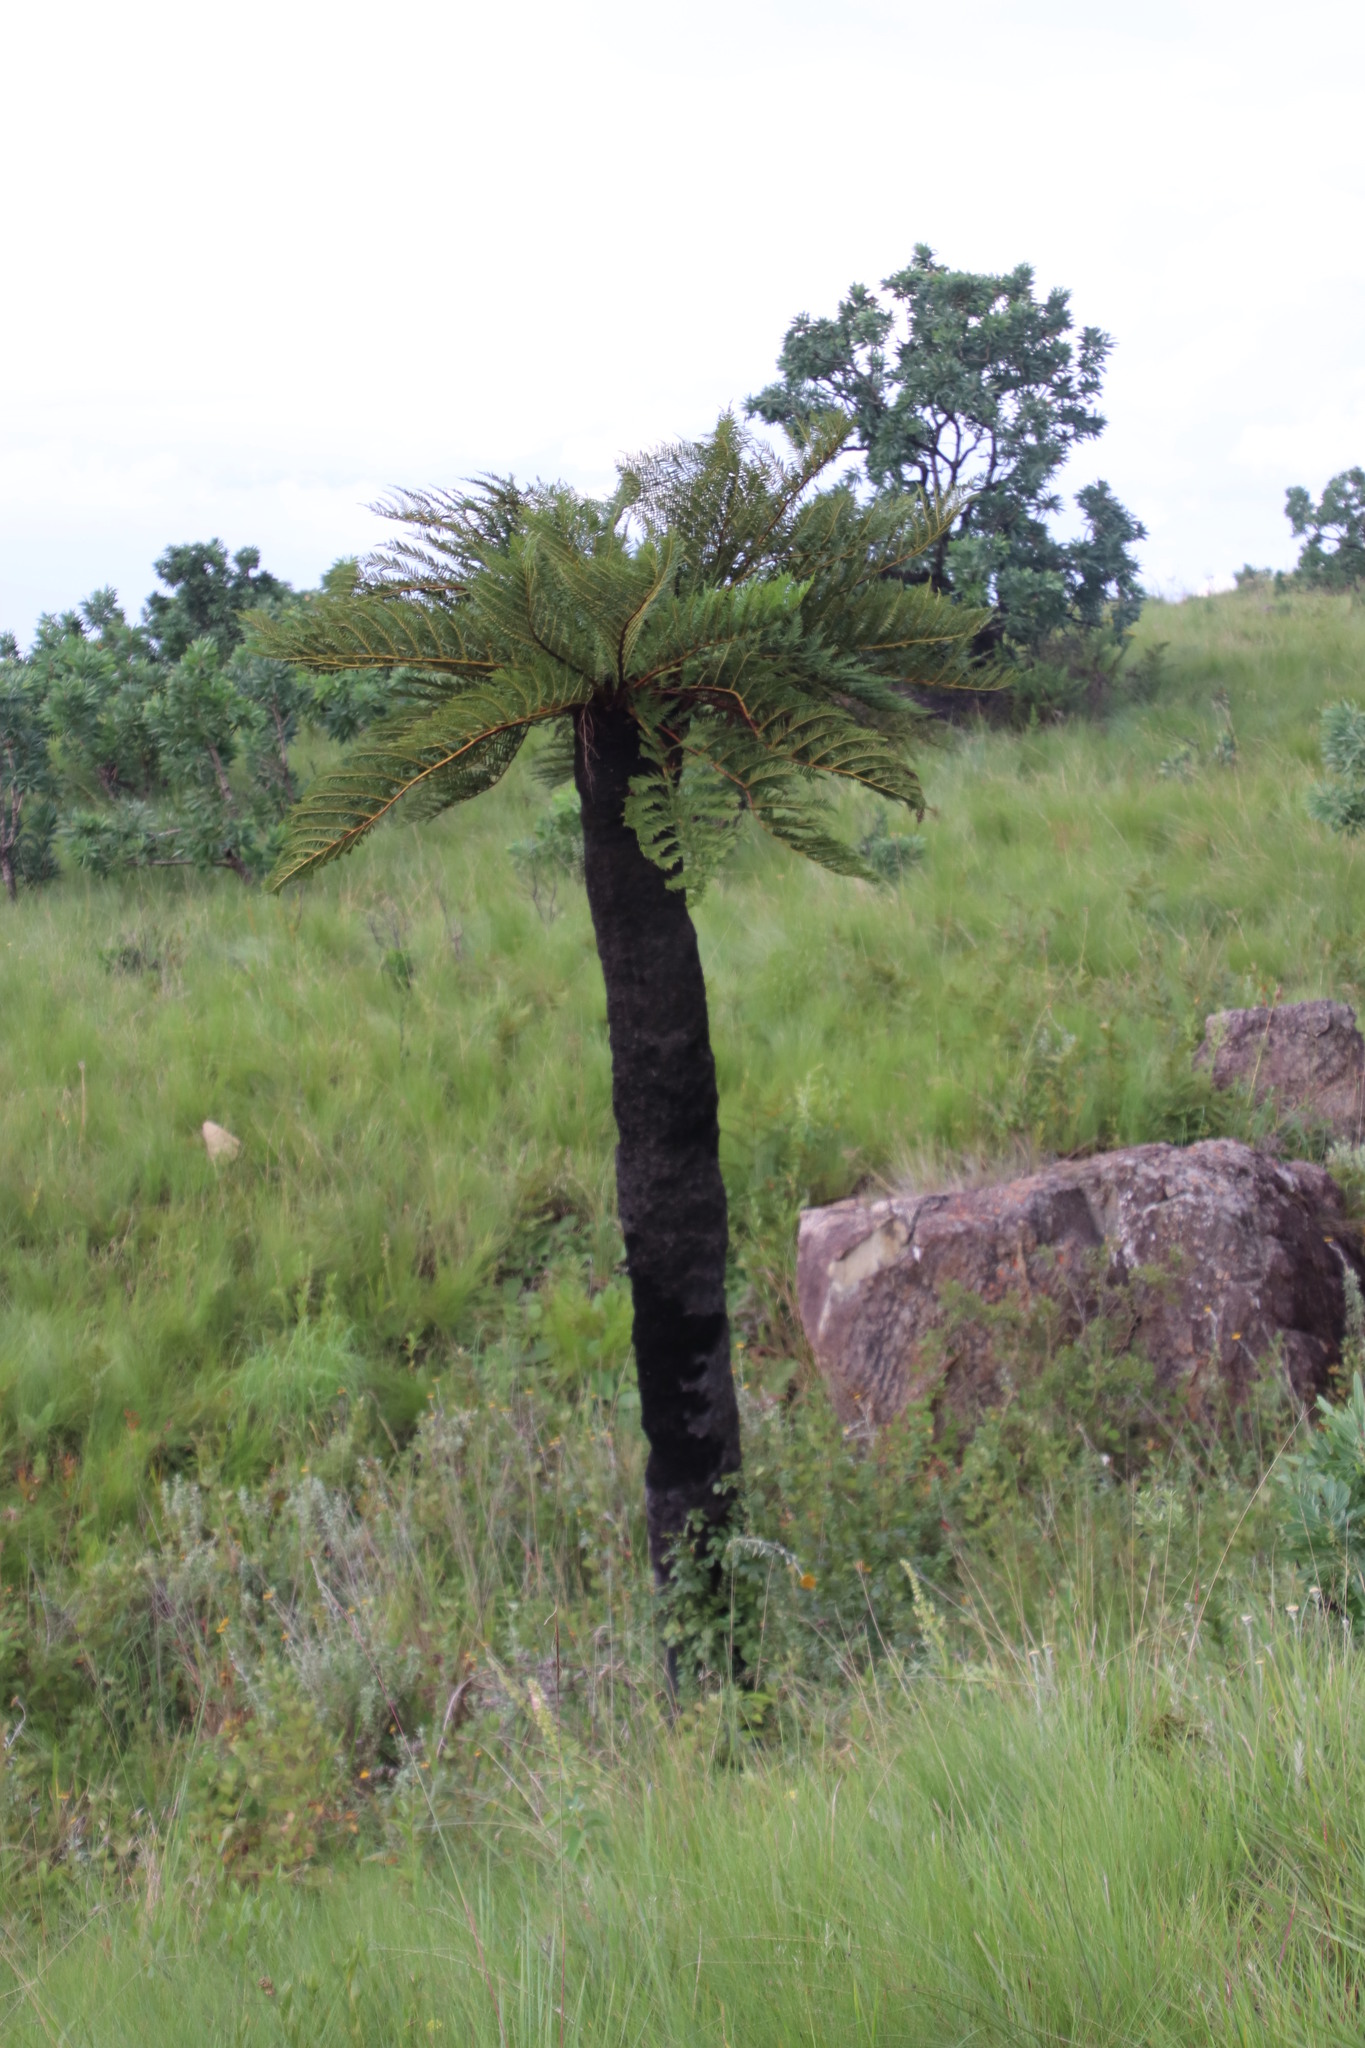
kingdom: Plantae
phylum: Tracheophyta
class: Polypodiopsida
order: Cyatheales
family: Cyatheaceae
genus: Alsophila
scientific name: Alsophila dregei
